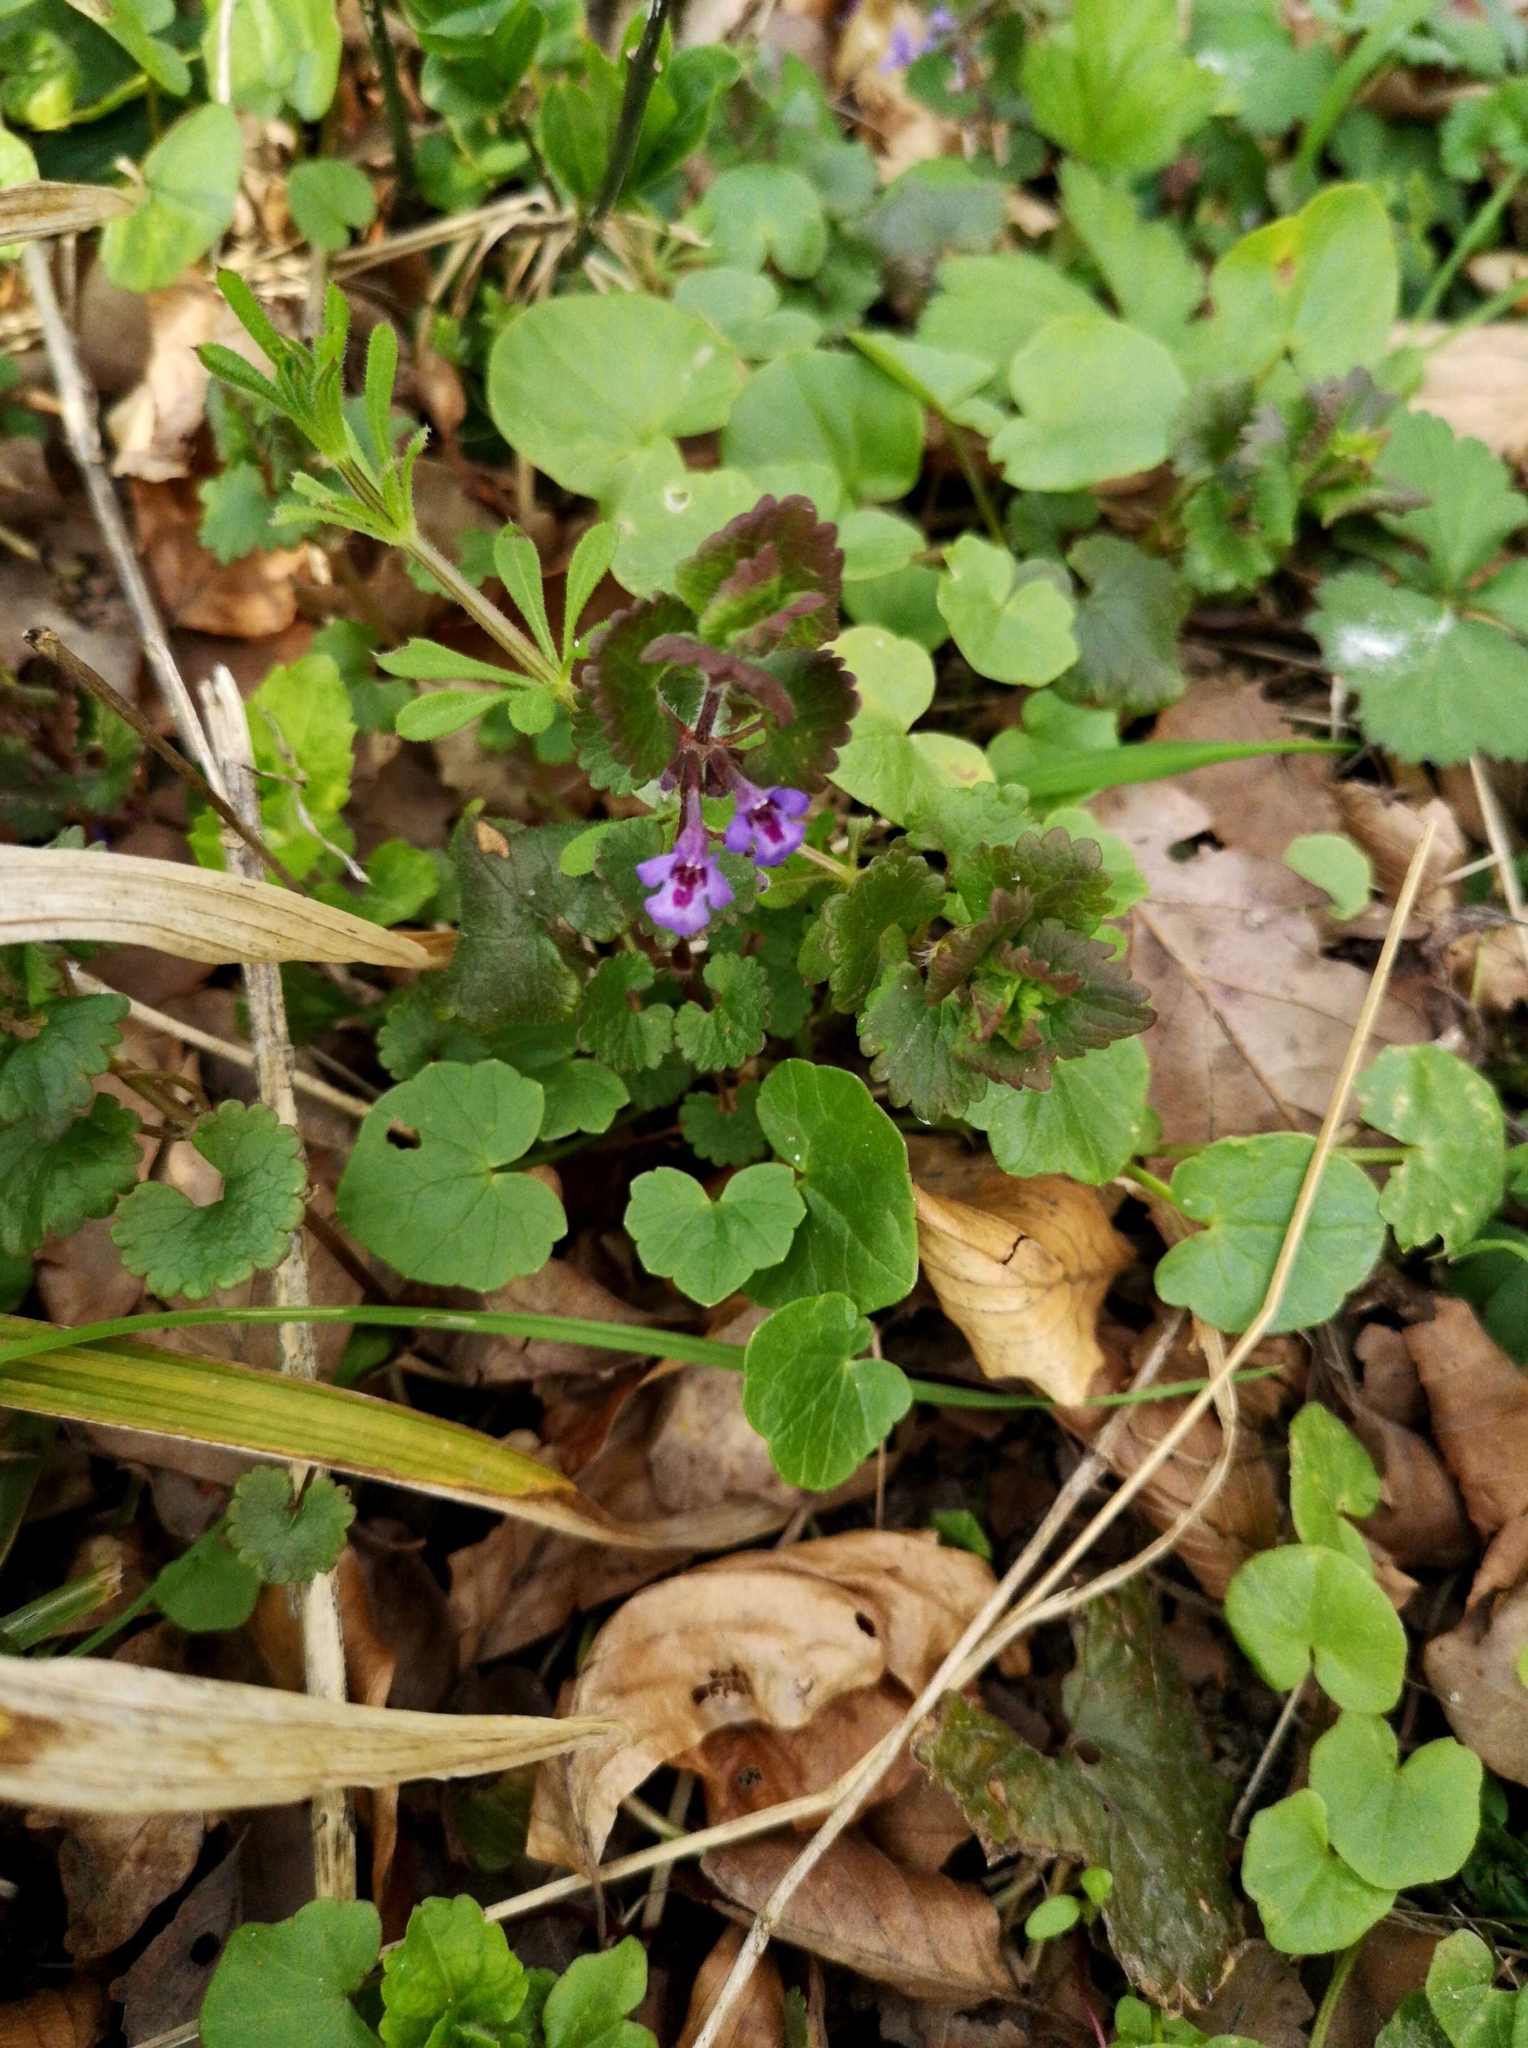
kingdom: Plantae
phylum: Tracheophyta
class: Magnoliopsida
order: Lamiales
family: Lamiaceae
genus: Glechoma
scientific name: Glechoma hederacea
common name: Ground ivy
